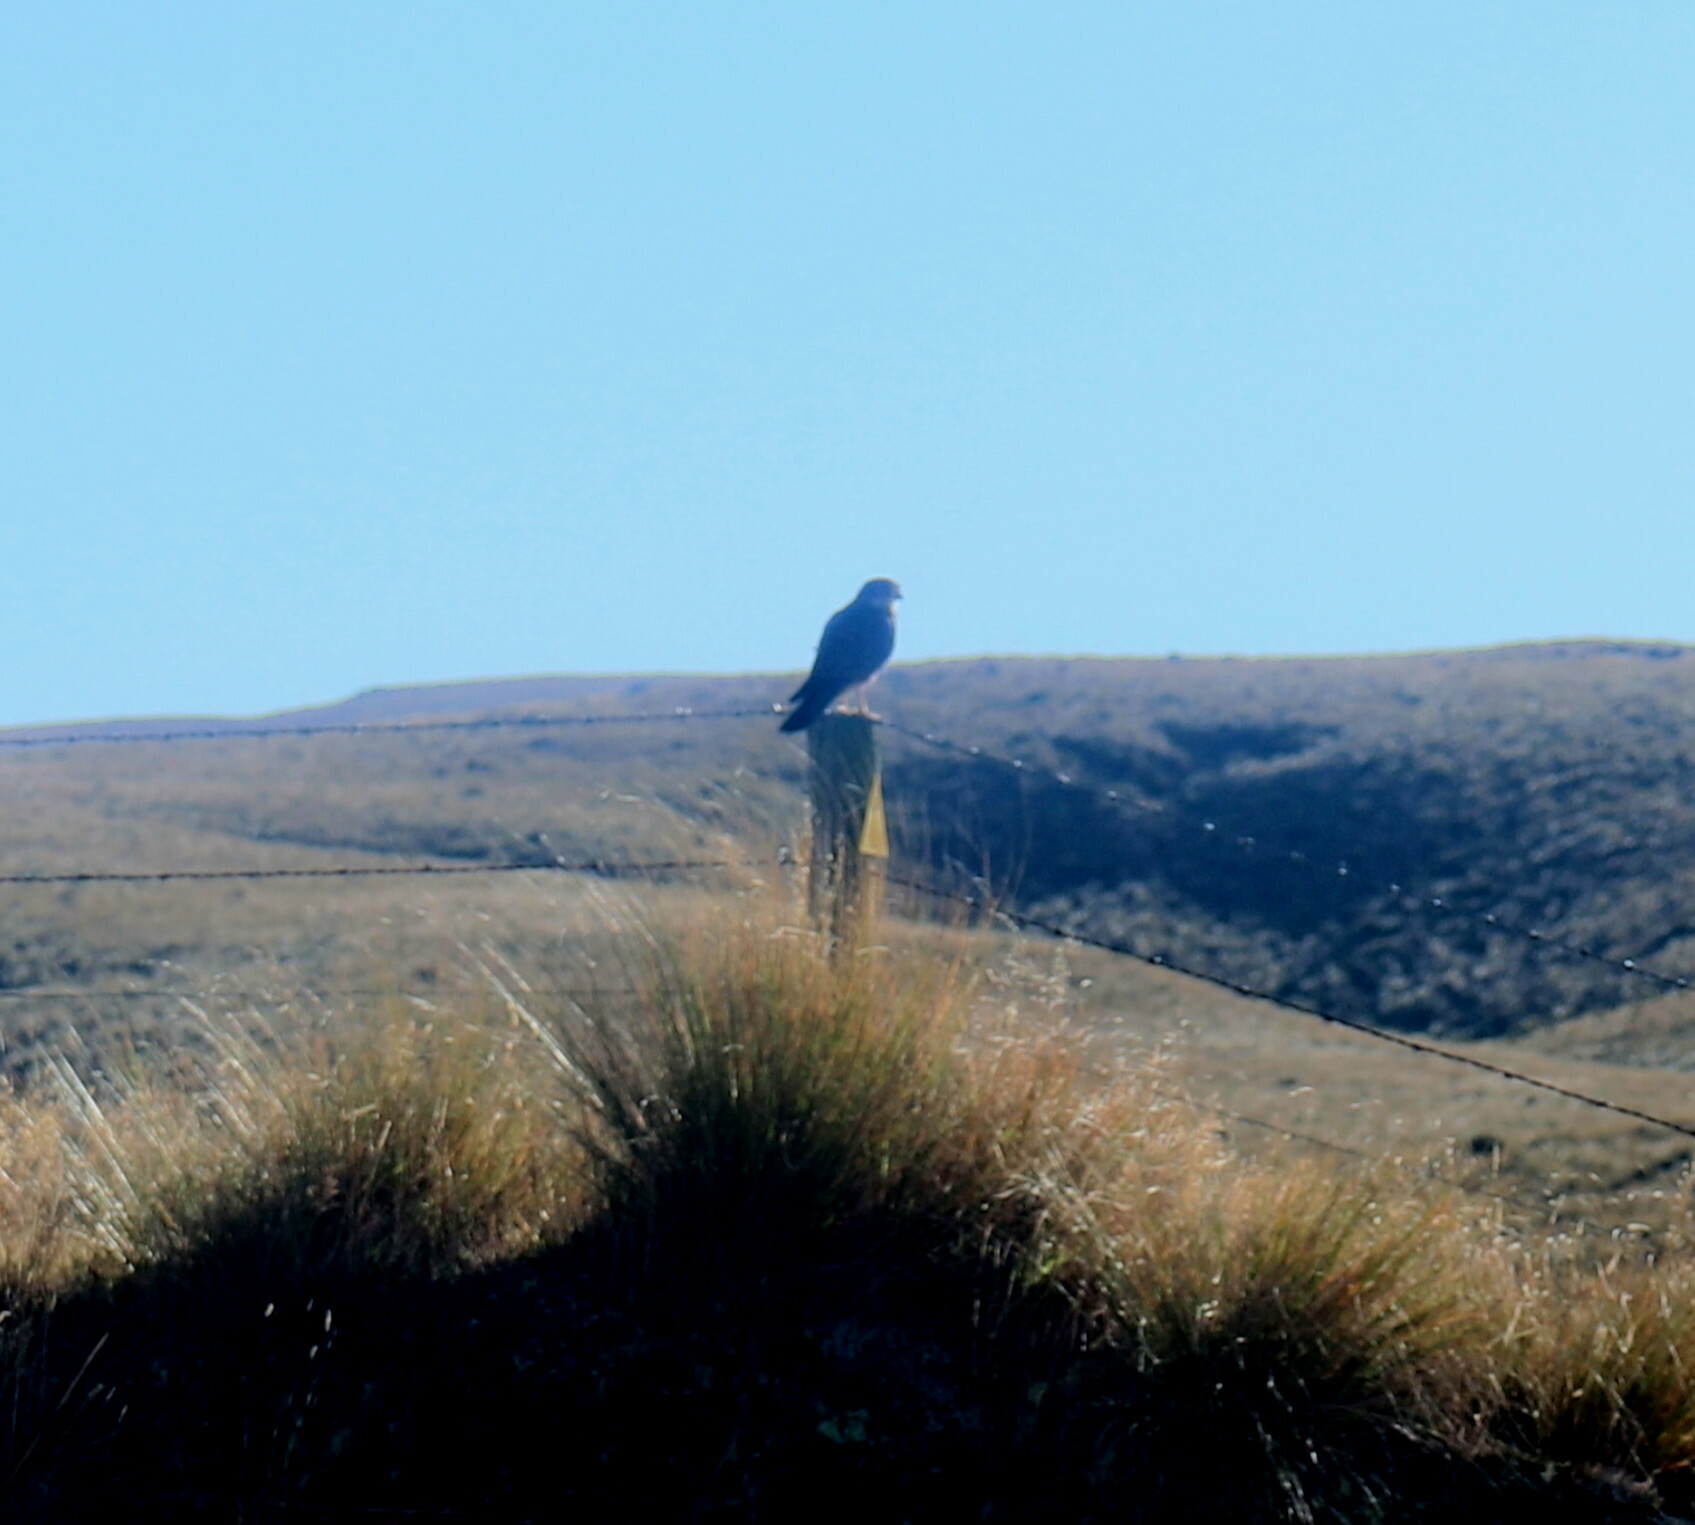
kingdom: Animalia
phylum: Chordata
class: Aves
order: Falconiformes
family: Falconidae
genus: Falco
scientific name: Falco novaeseelandiae
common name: New zealand falcon
